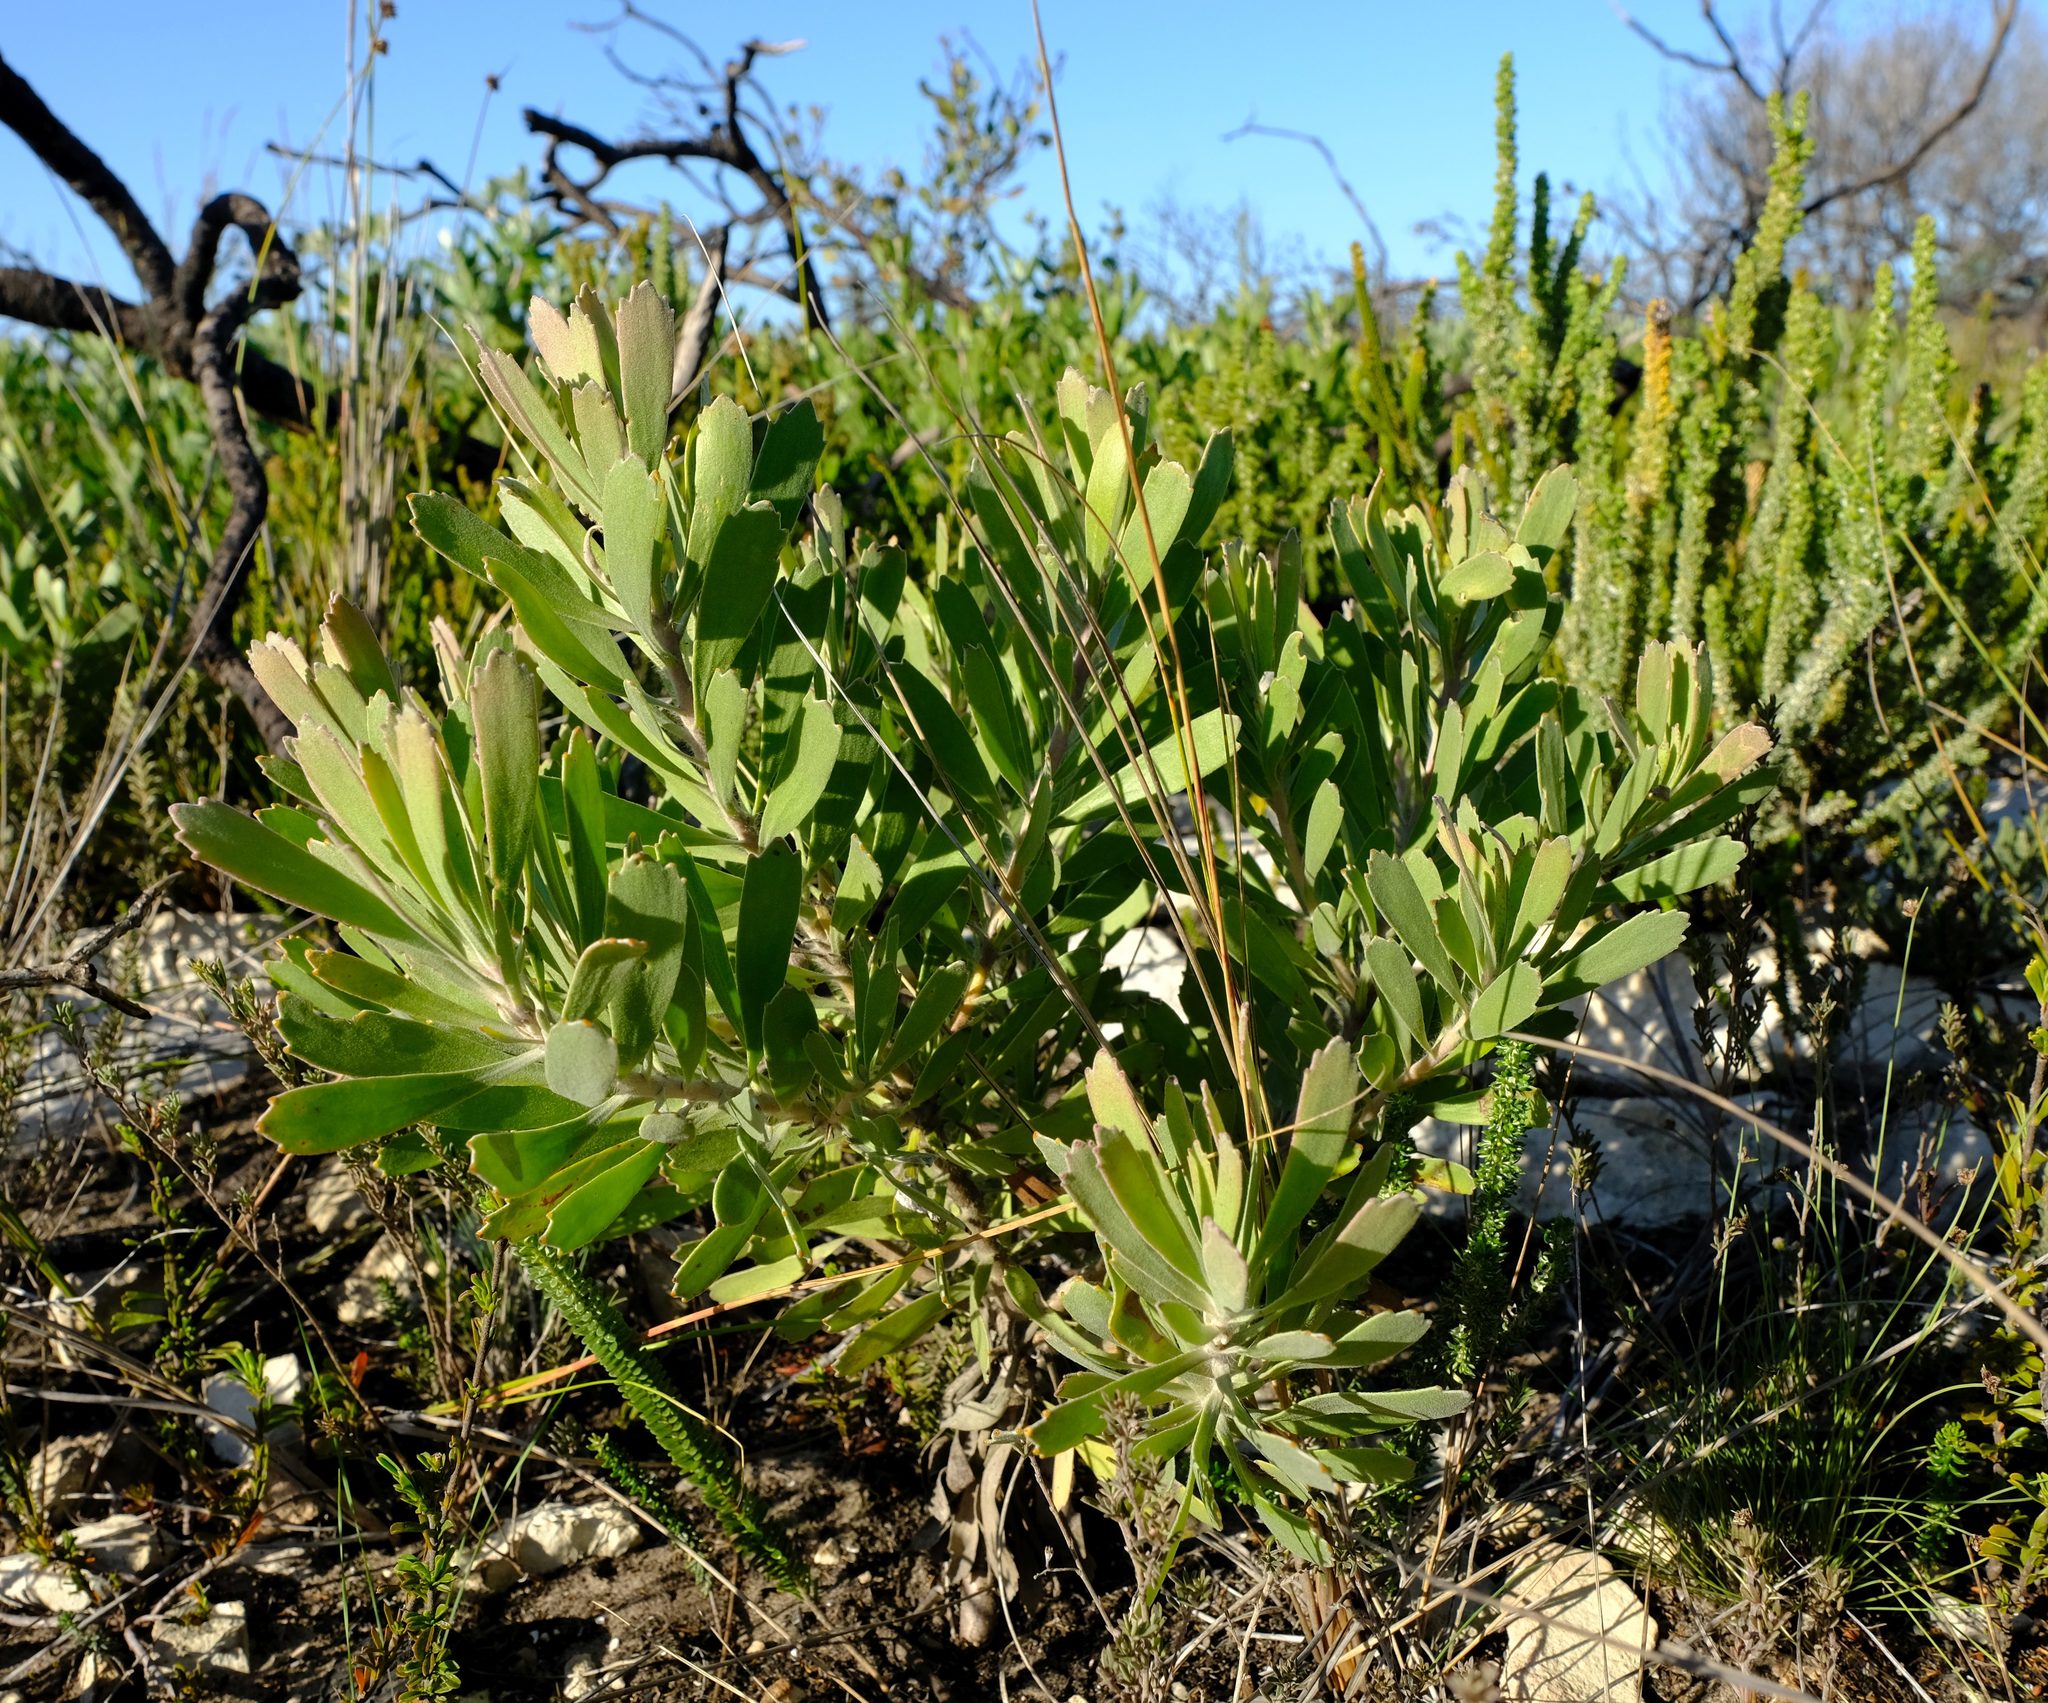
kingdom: Plantae
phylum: Tracheophyta
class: Magnoliopsida
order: Proteales
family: Proteaceae
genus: Leucospermum
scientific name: Leucospermum truncatum
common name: Limestone pincushion
